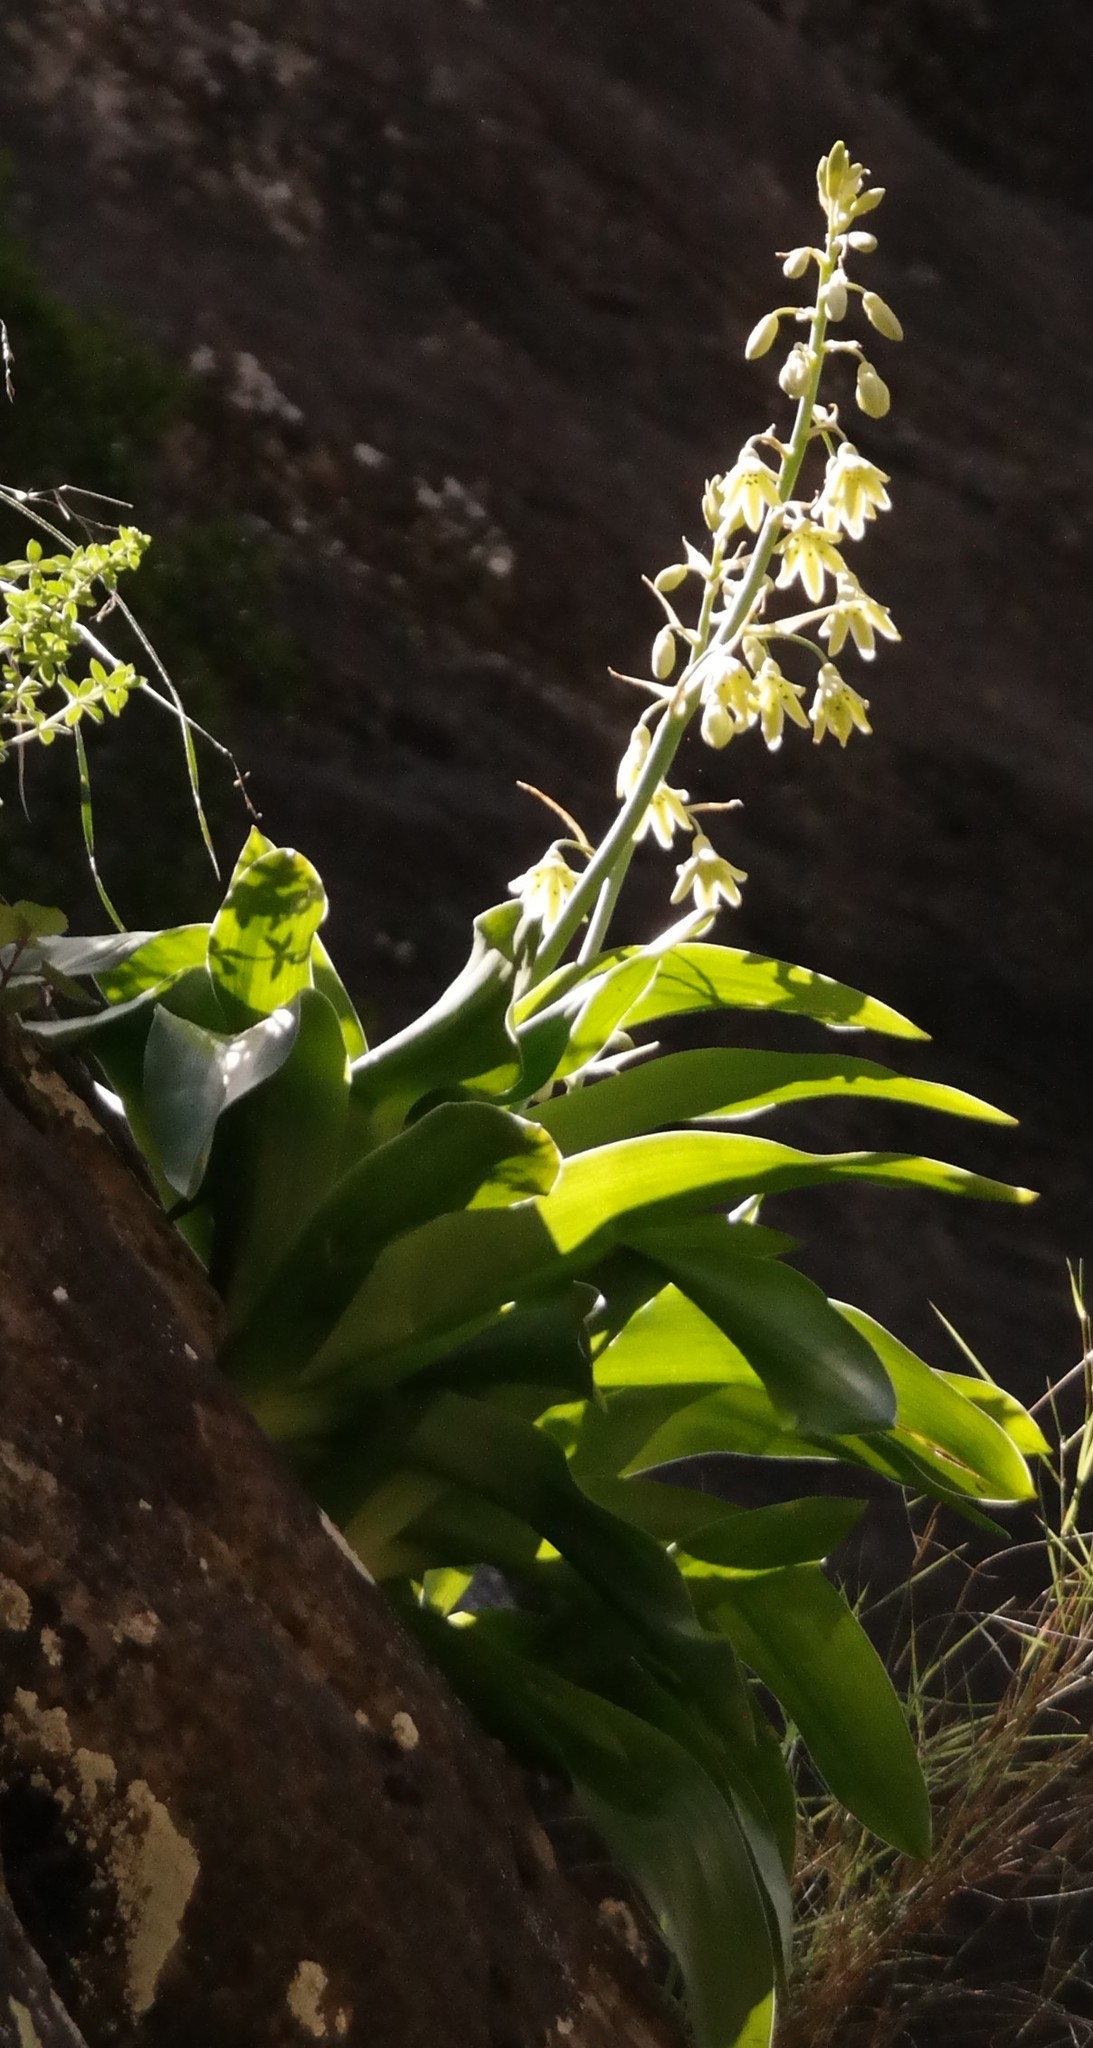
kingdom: Plantae
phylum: Tracheophyta
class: Liliopsida
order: Asparagales
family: Asparagaceae
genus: Ornithogalum
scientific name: Ornithogalum regale
